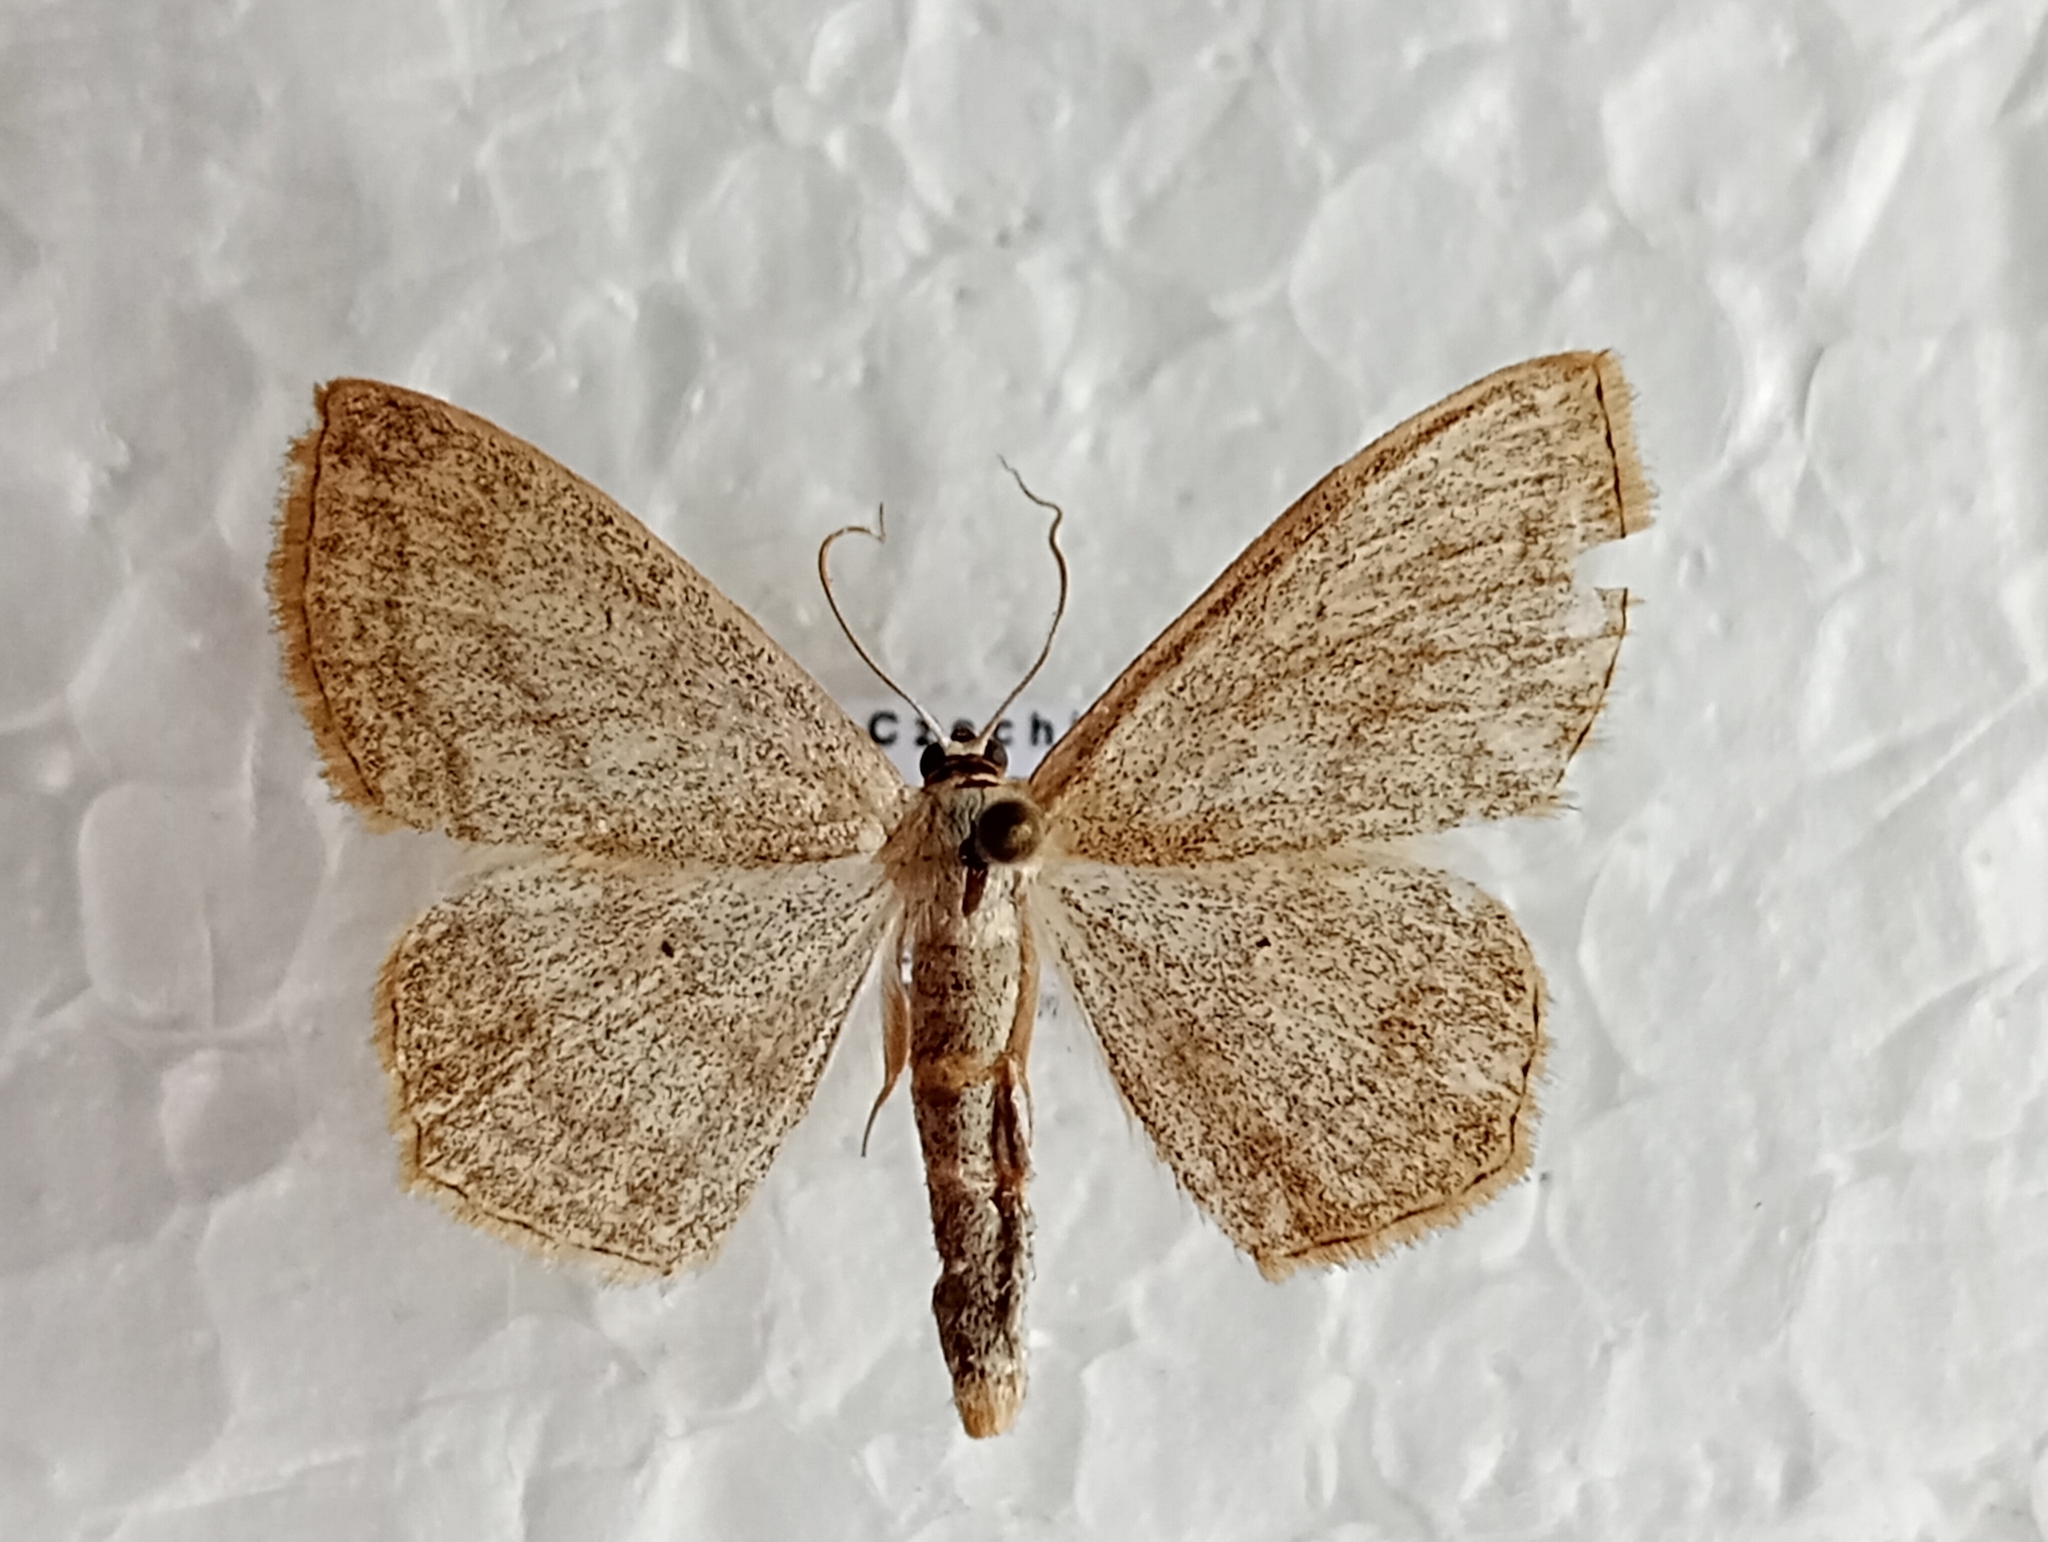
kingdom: Animalia
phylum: Arthropoda
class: Insecta
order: Lepidoptera
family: Geometridae
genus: Scopula
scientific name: Scopula nigropunctata
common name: Sub-angled wave
